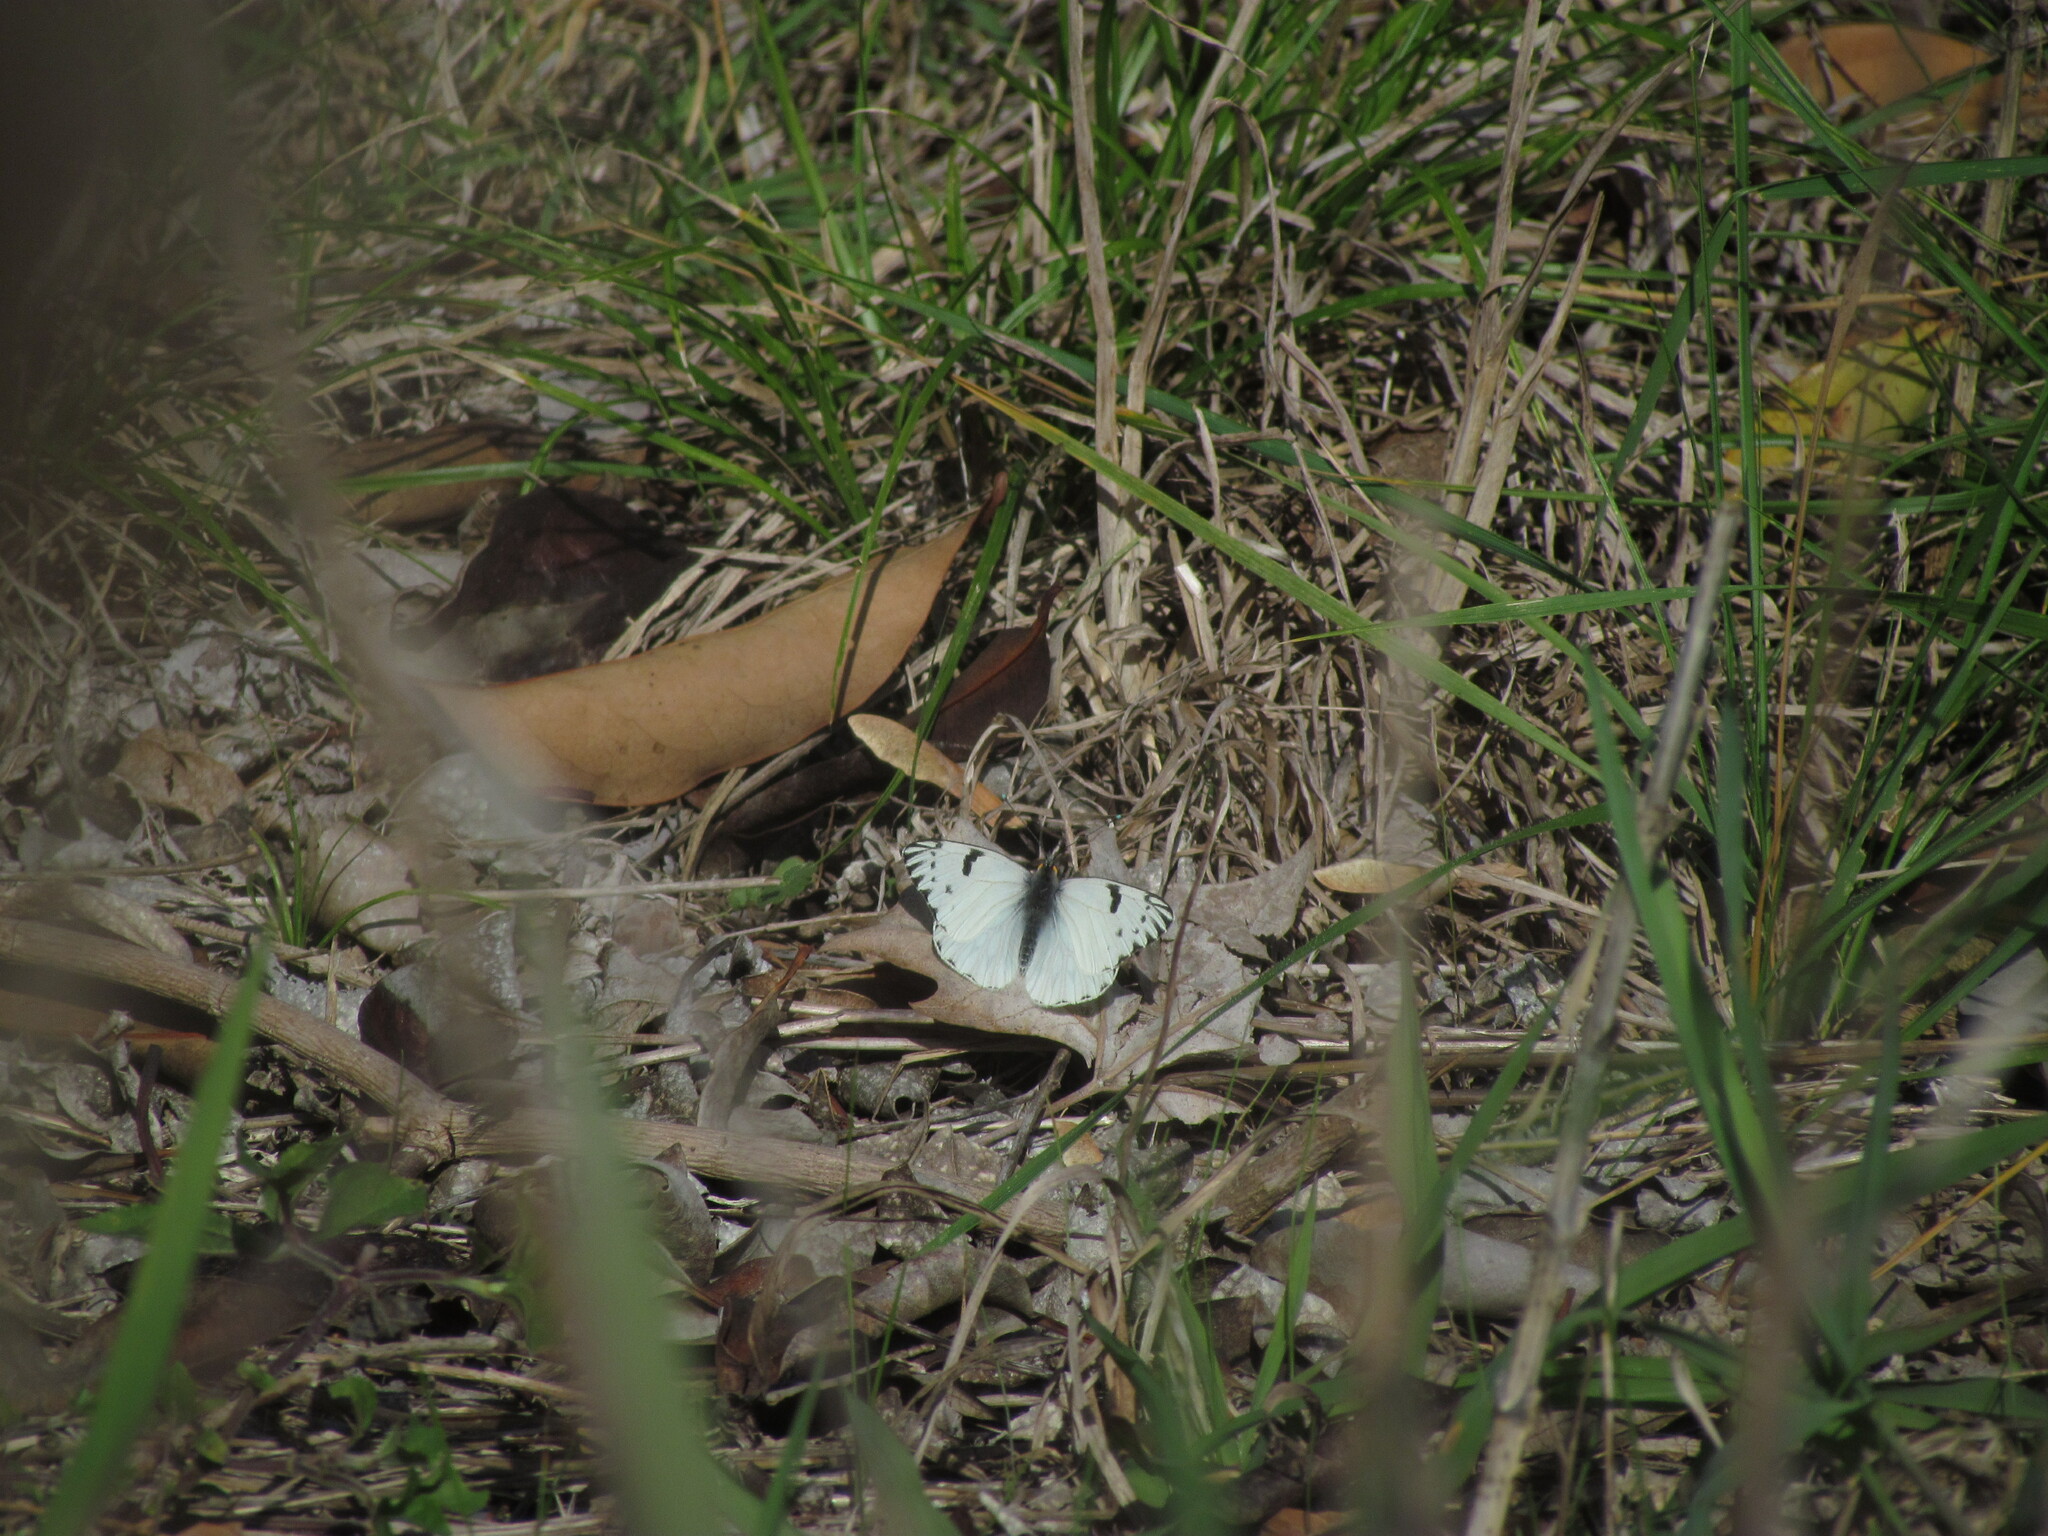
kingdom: Animalia
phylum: Arthropoda
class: Insecta
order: Lepidoptera
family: Pieridae
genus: Tatochila
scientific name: Tatochila autodice
